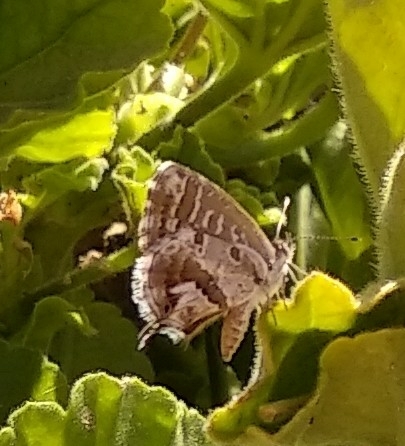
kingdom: Animalia
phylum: Arthropoda
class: Insecta
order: Lepidoptera
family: Lycaenidae
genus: Cacyreus
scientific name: Cacyreus marshalli
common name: Geranium bronze
